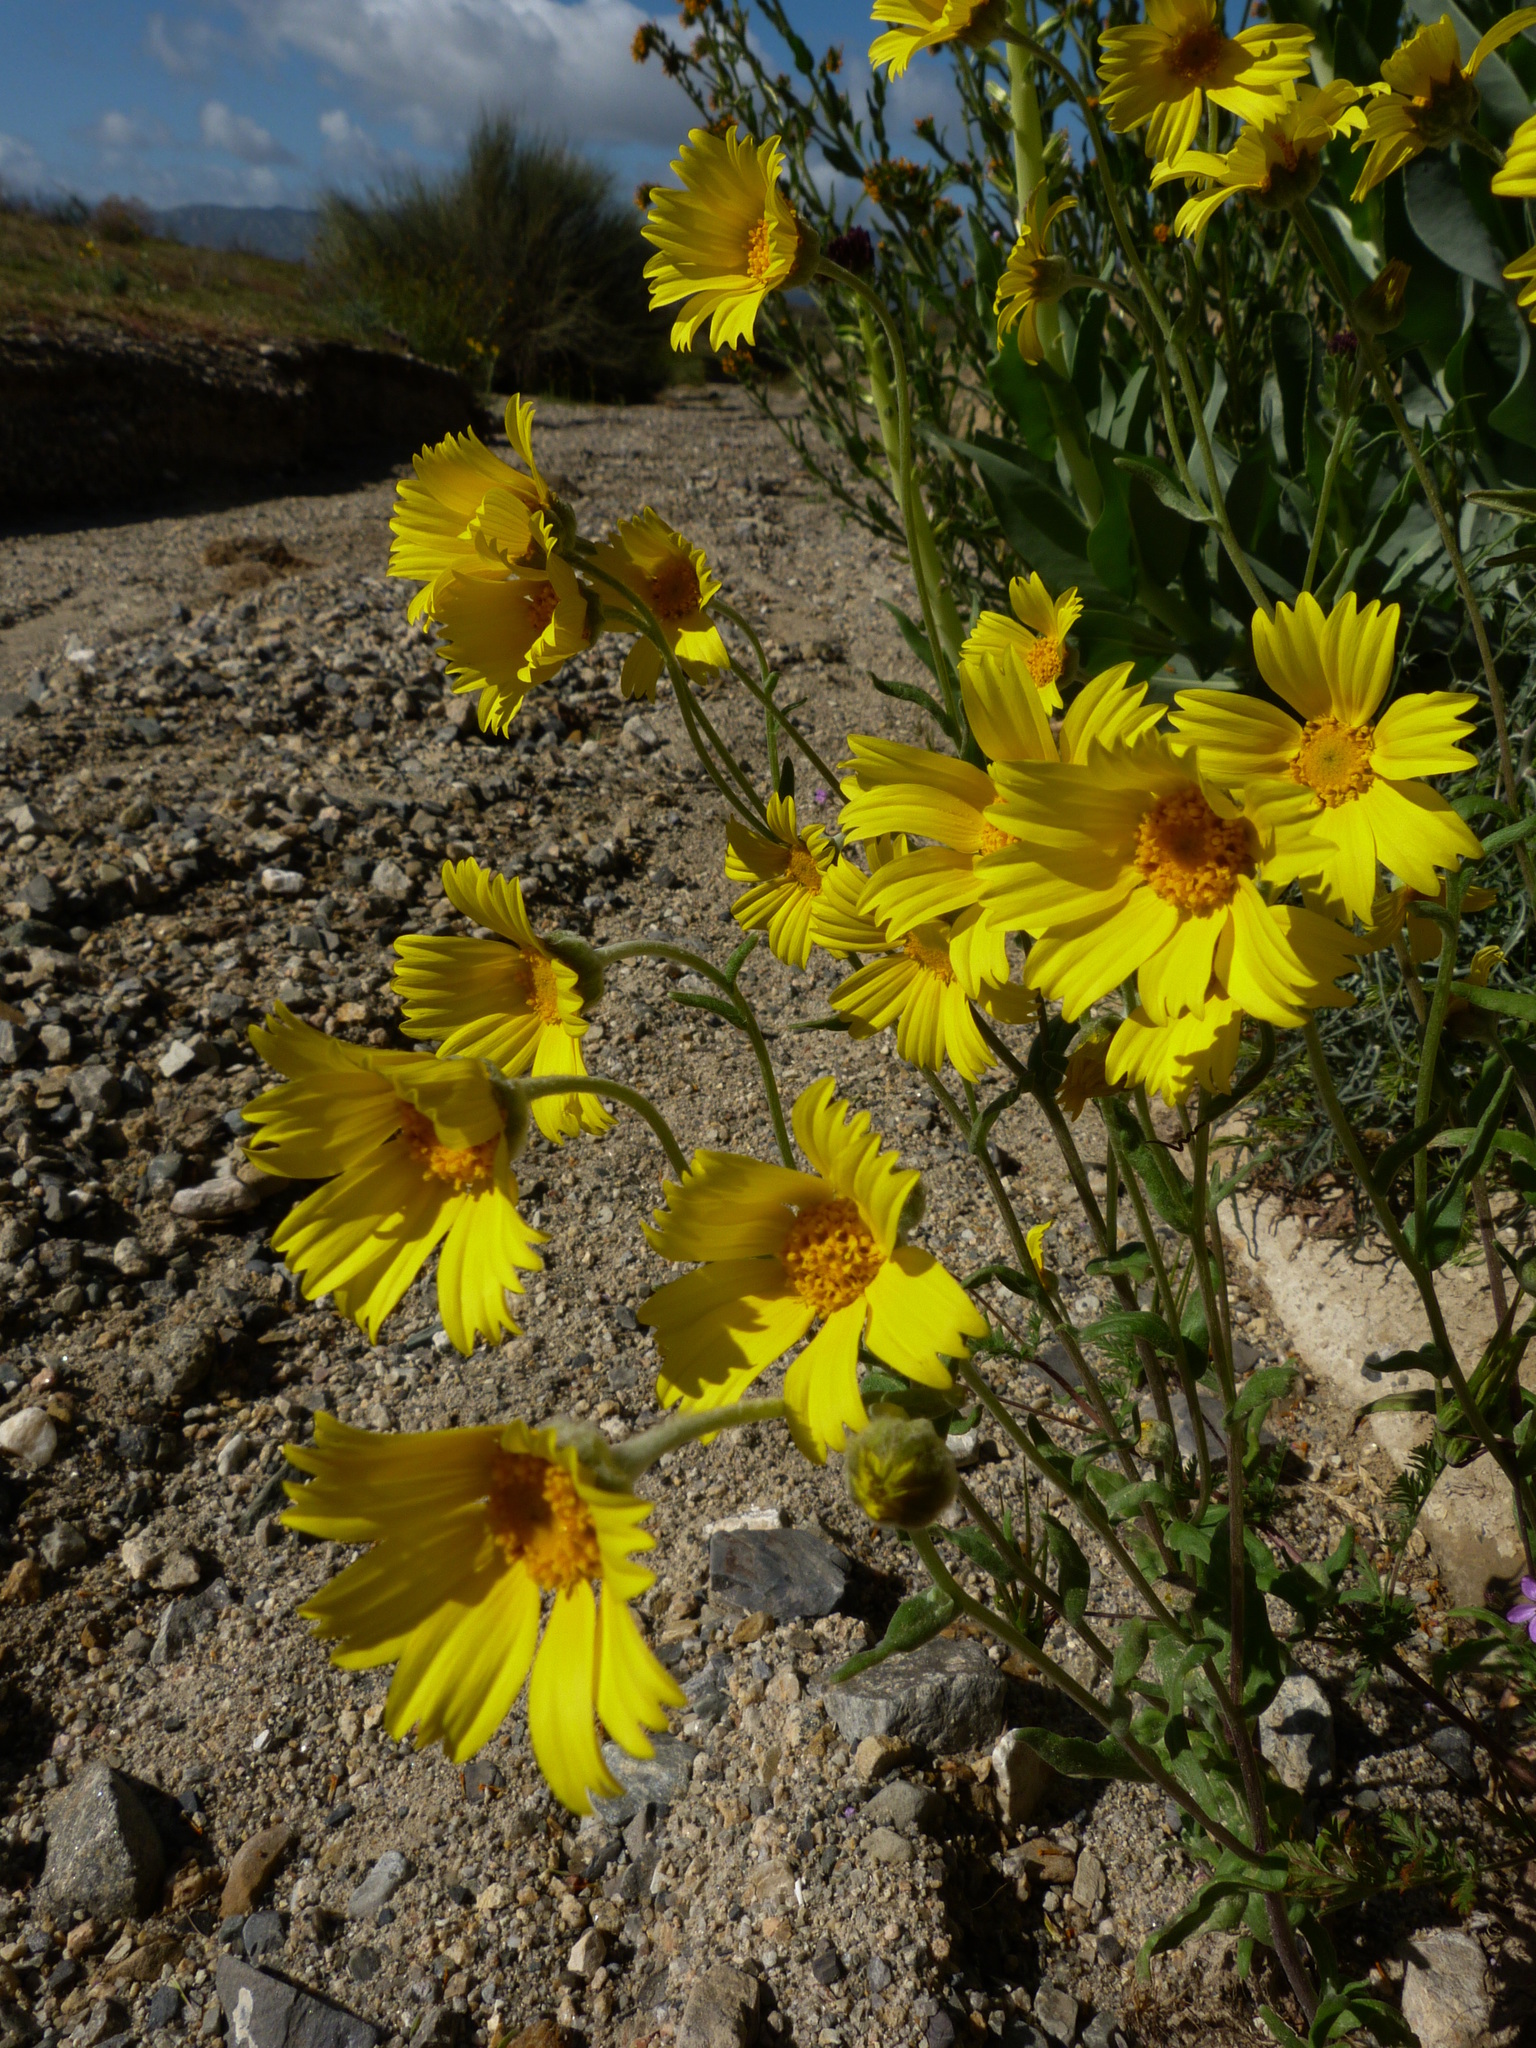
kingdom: Plantae
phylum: Tracheophyta
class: Magnoliopsida
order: Asterales
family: Asteraceae
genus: Monolopia
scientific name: Monolopia lanceolata
